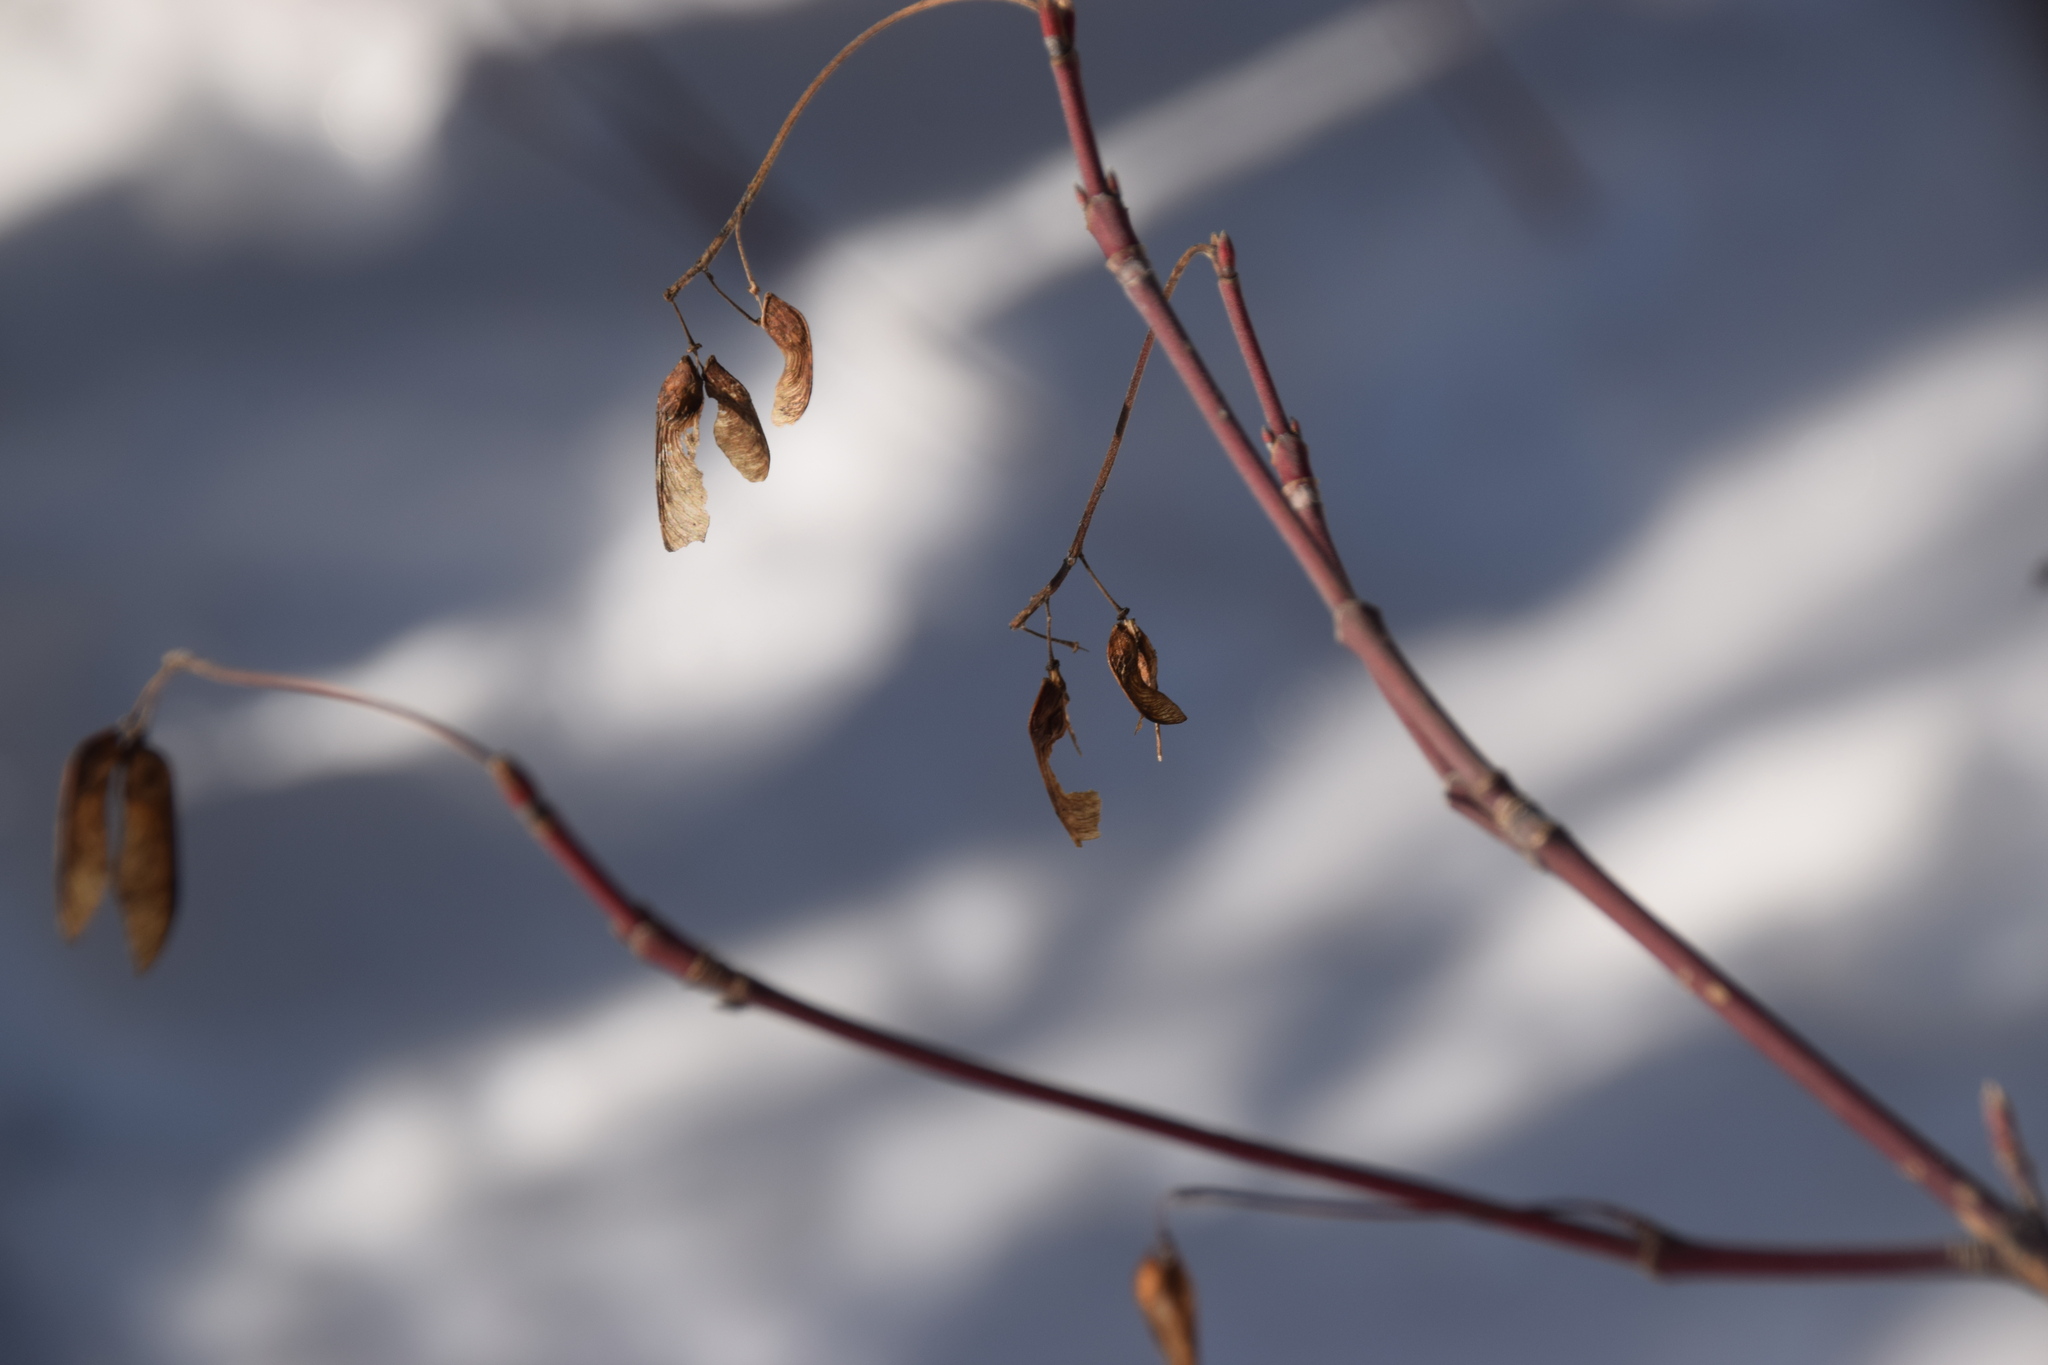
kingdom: Plantae
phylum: Tracheophyta
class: Magnoliopsida
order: Sapindales
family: Sapindaceae
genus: Acer
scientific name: Acer spicatum
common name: Mountain maple
